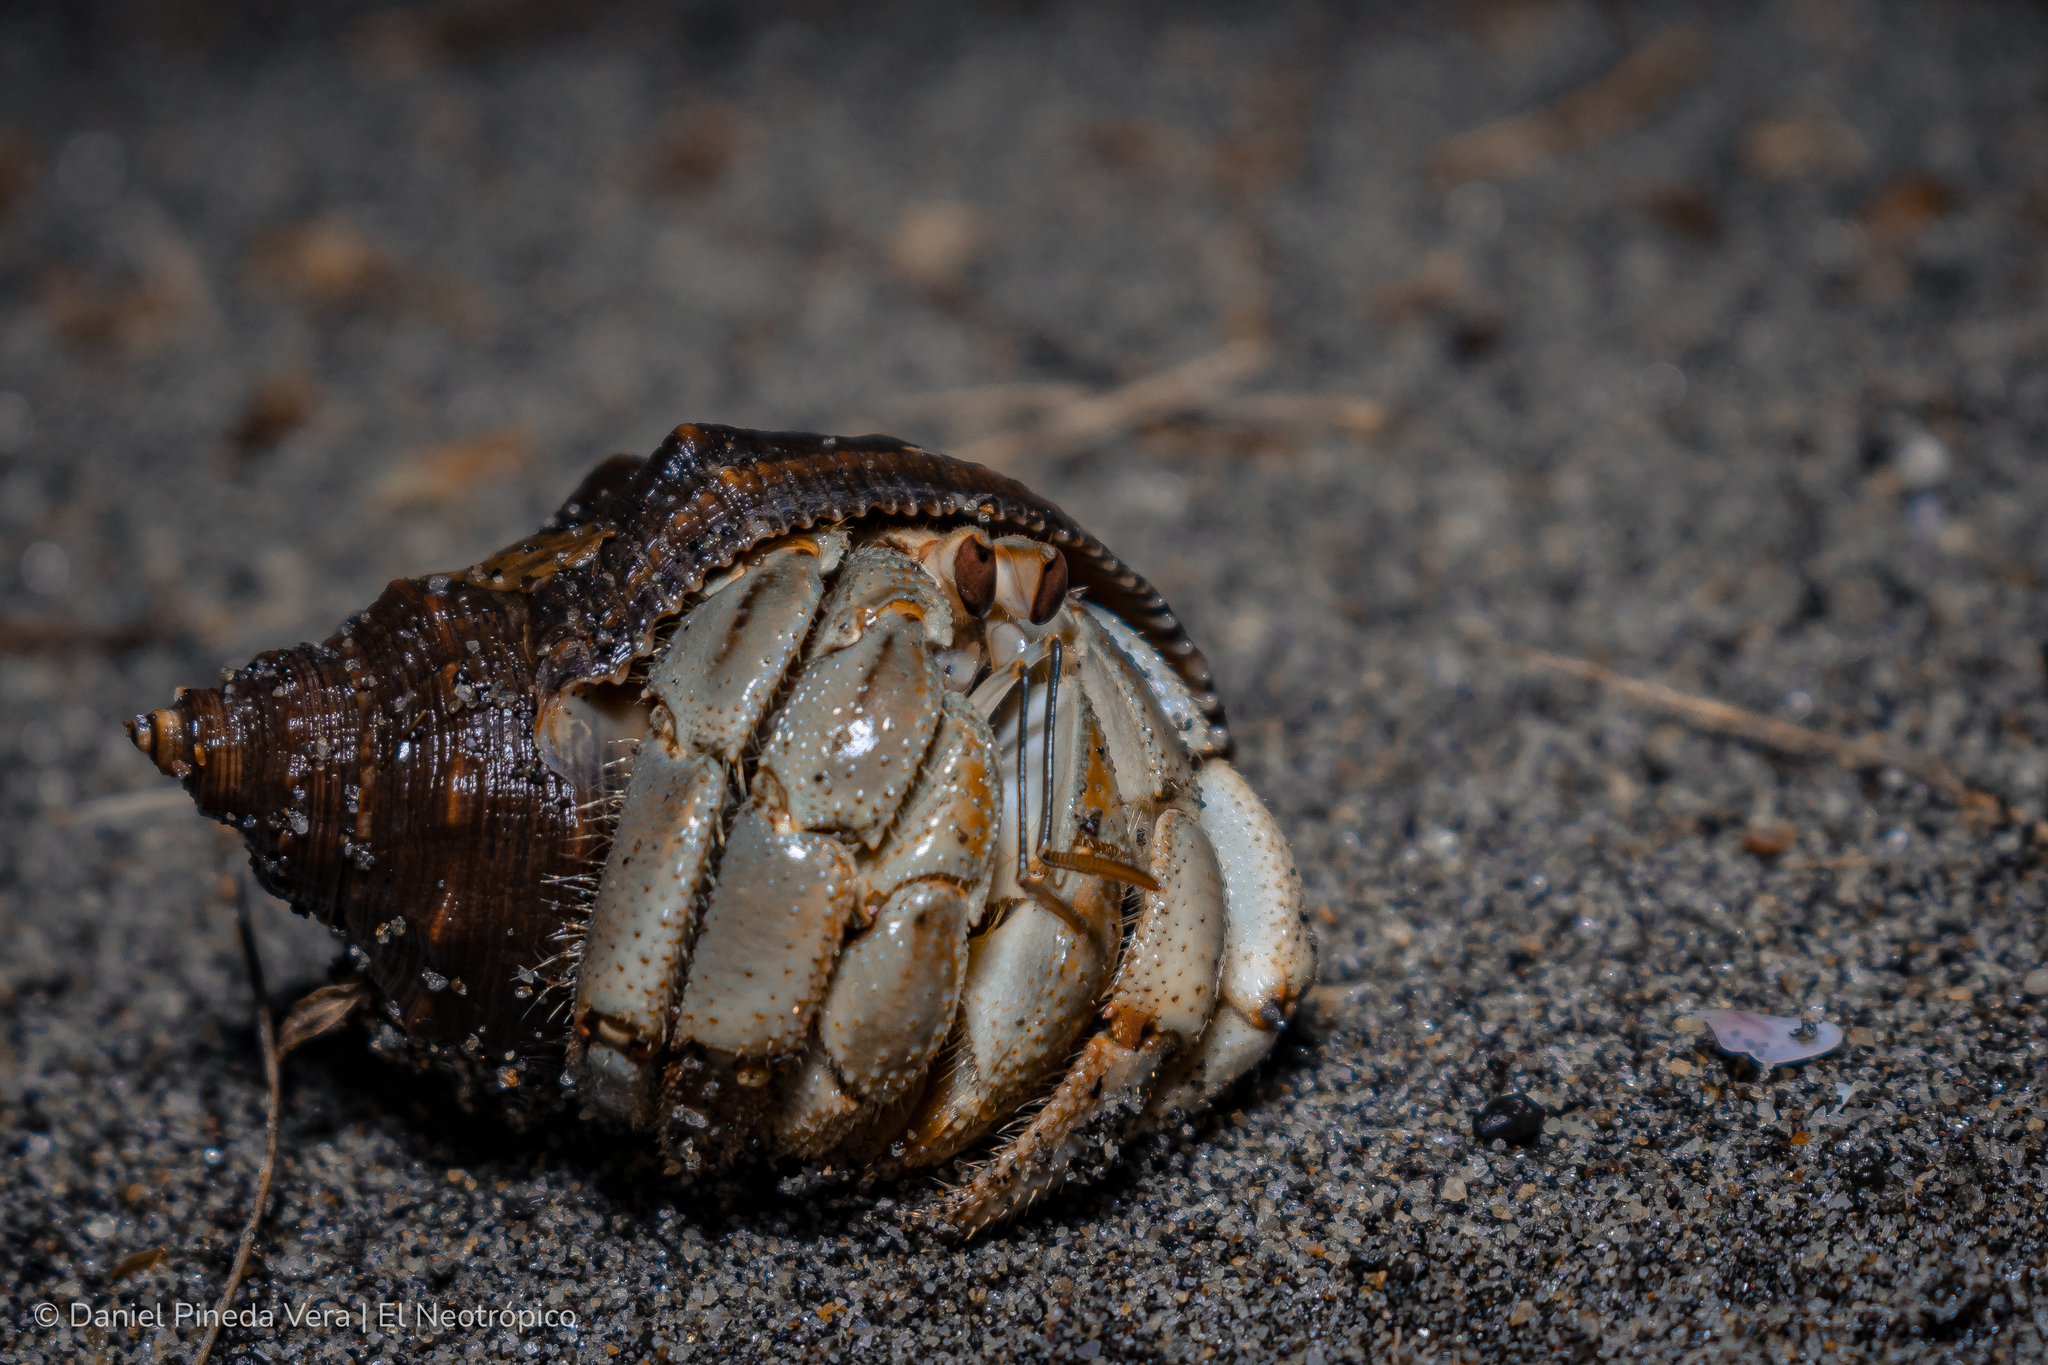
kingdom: Animalia
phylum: Arthropoda
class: Malacostraca
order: Decapoda
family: Coenobitidae
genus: Coenobita
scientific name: Coenobita compressus
